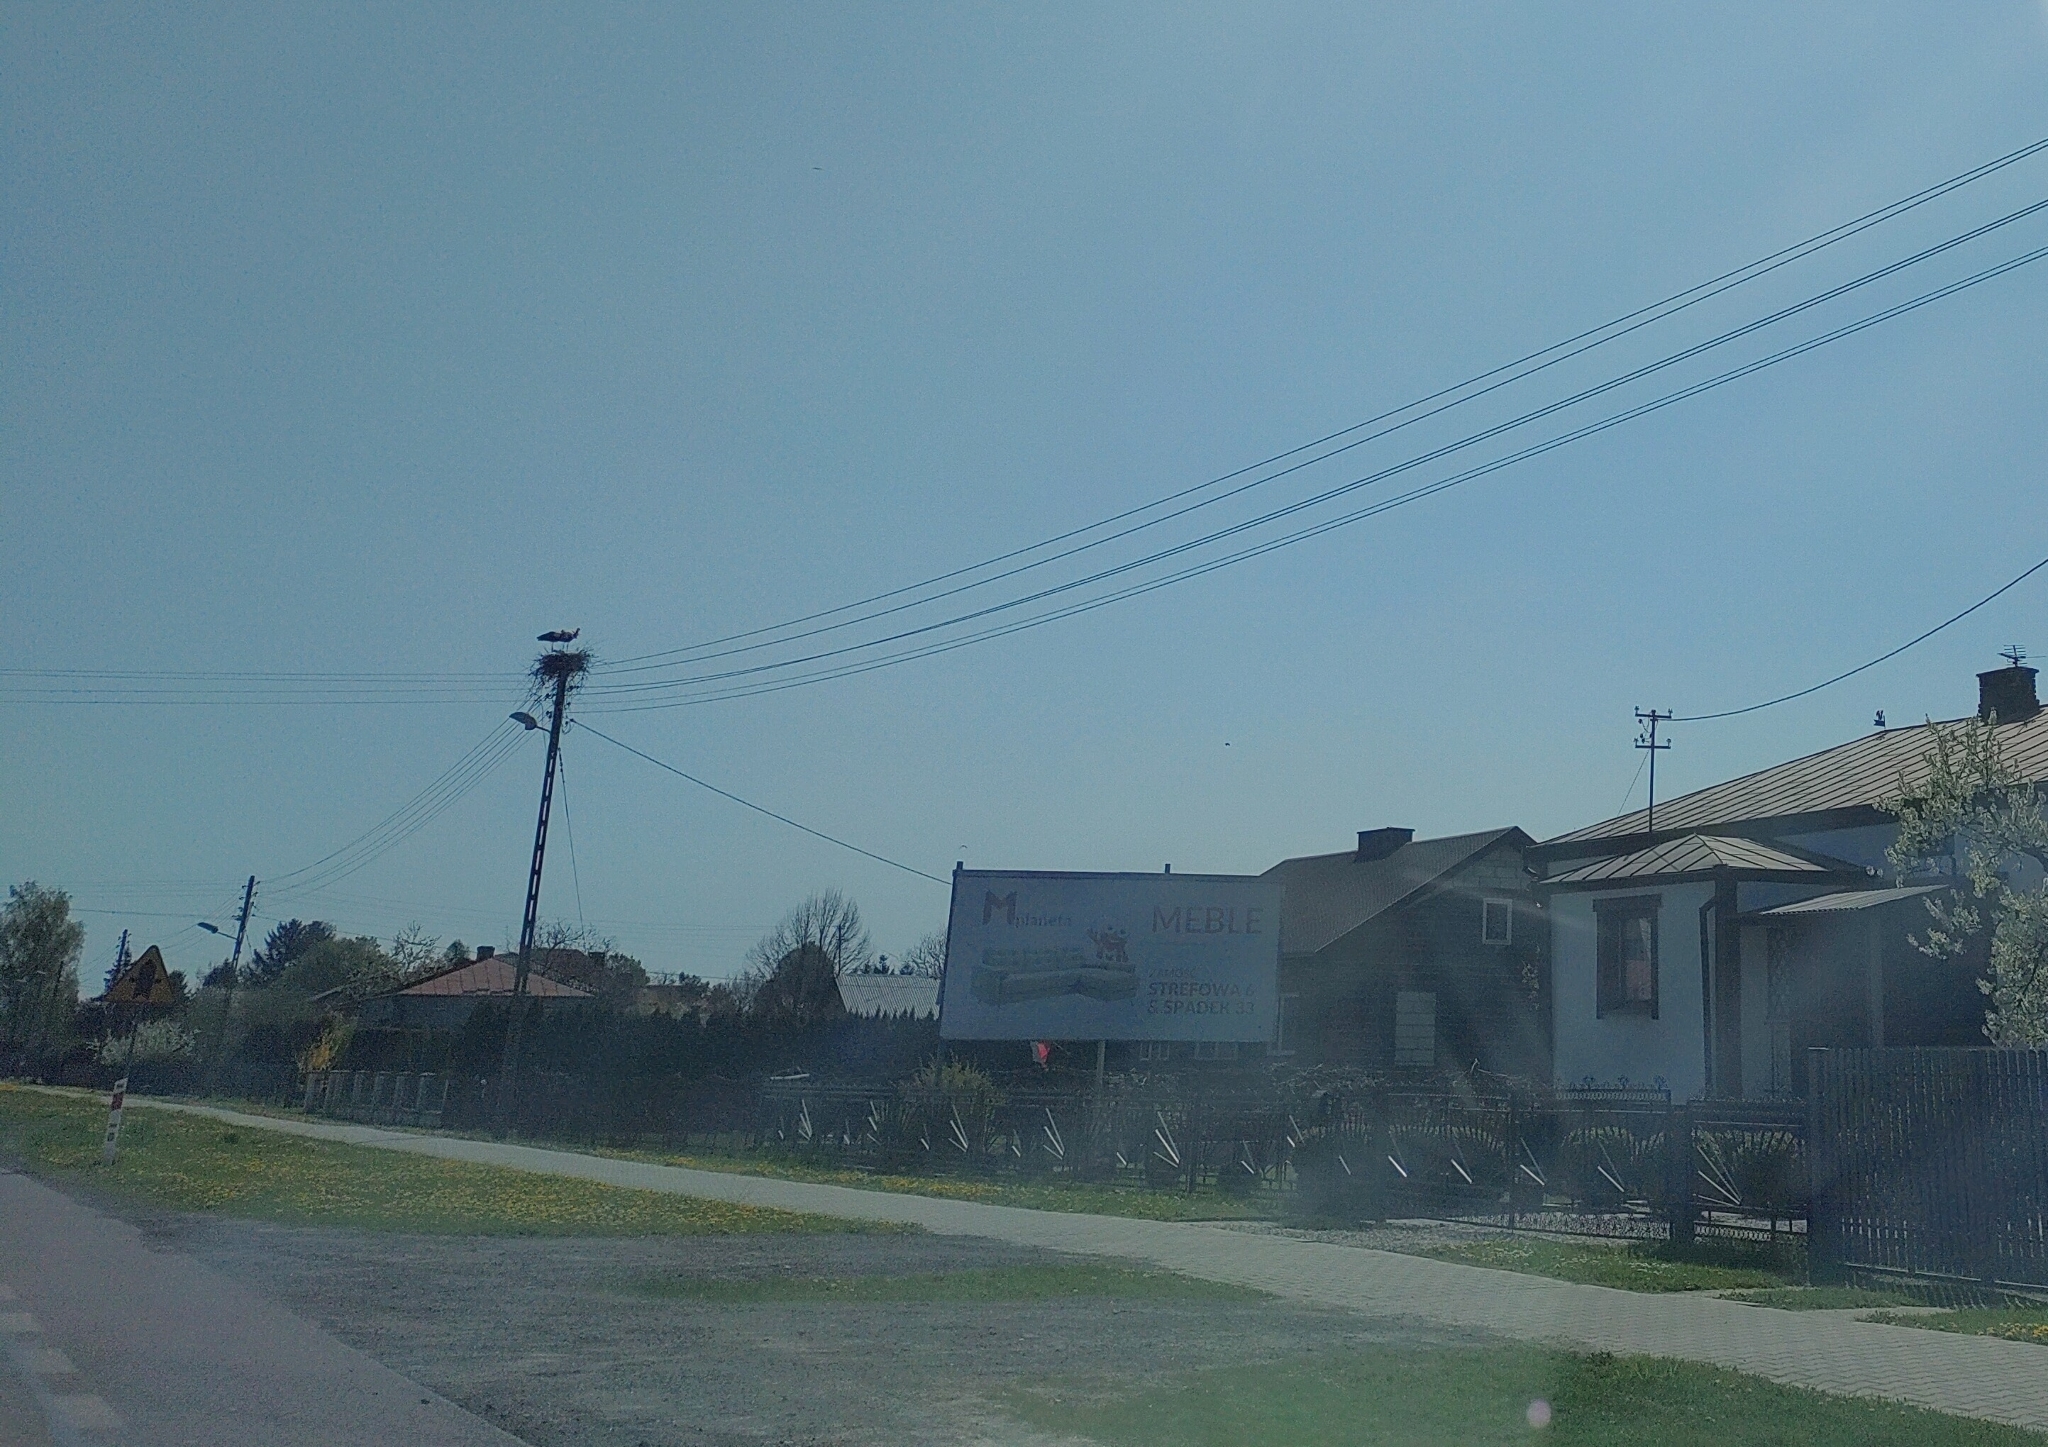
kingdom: Animalia
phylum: Chordata
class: Aves
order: Ciconiiformes
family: Ciconiidae
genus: Ciconia
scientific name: Ciconia ciconia
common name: White stork
